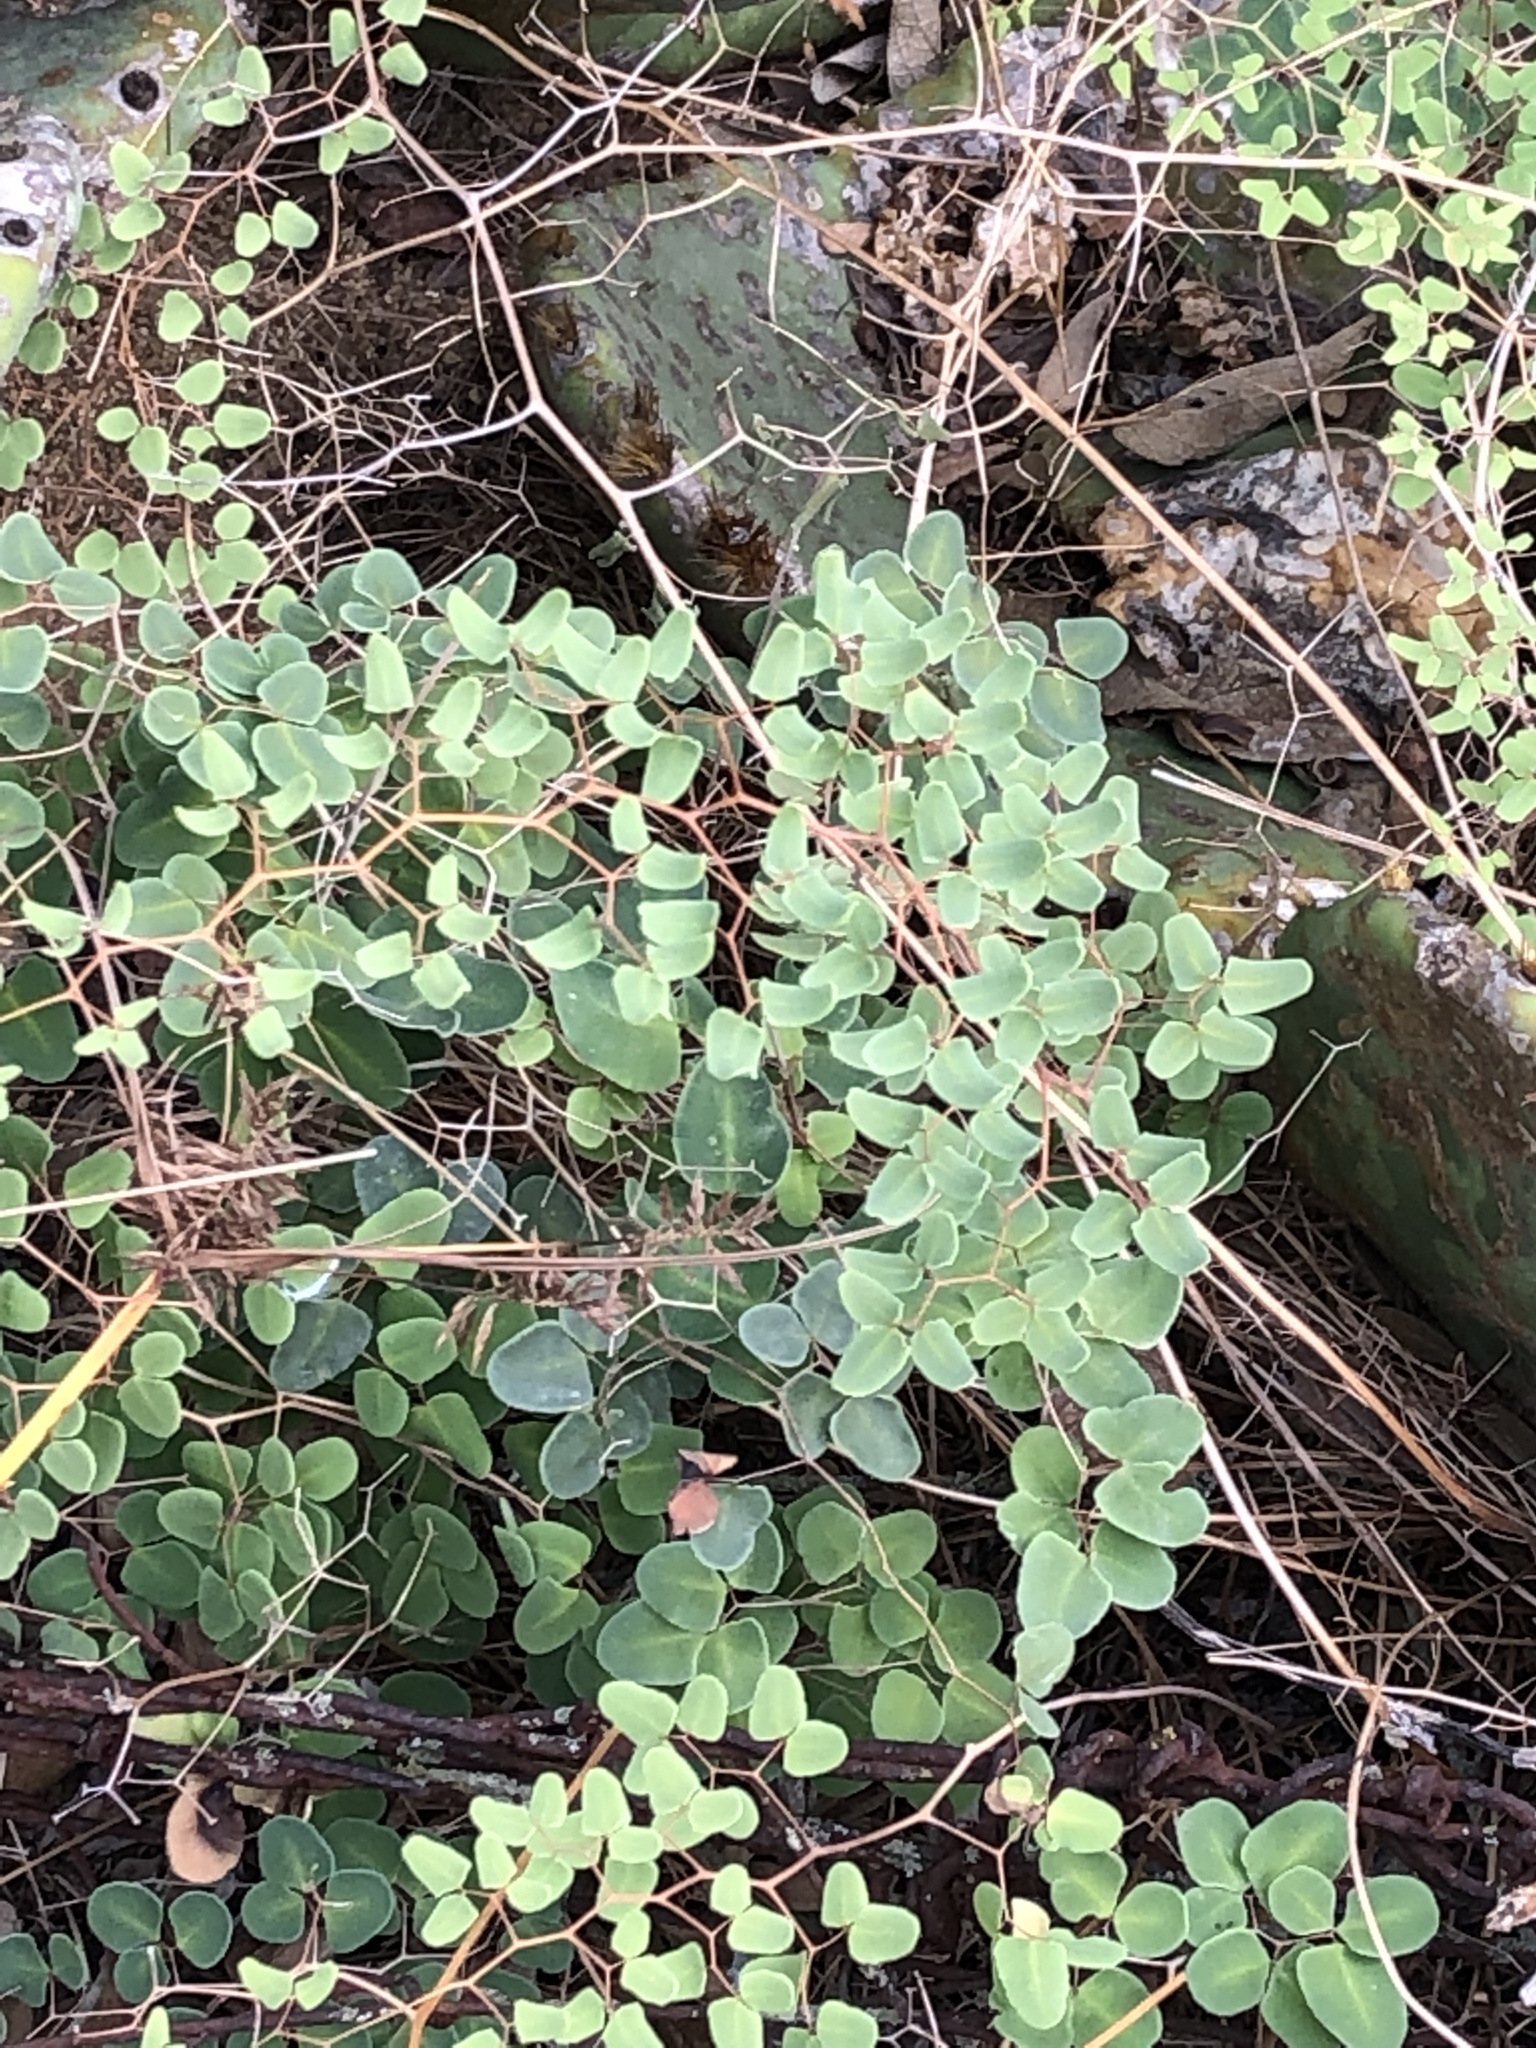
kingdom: Plantae
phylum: Tracheophyta
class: Polypodiopsida
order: Polypodiales
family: Pteridaceae
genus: Pellaea
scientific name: Pellaea ovata
